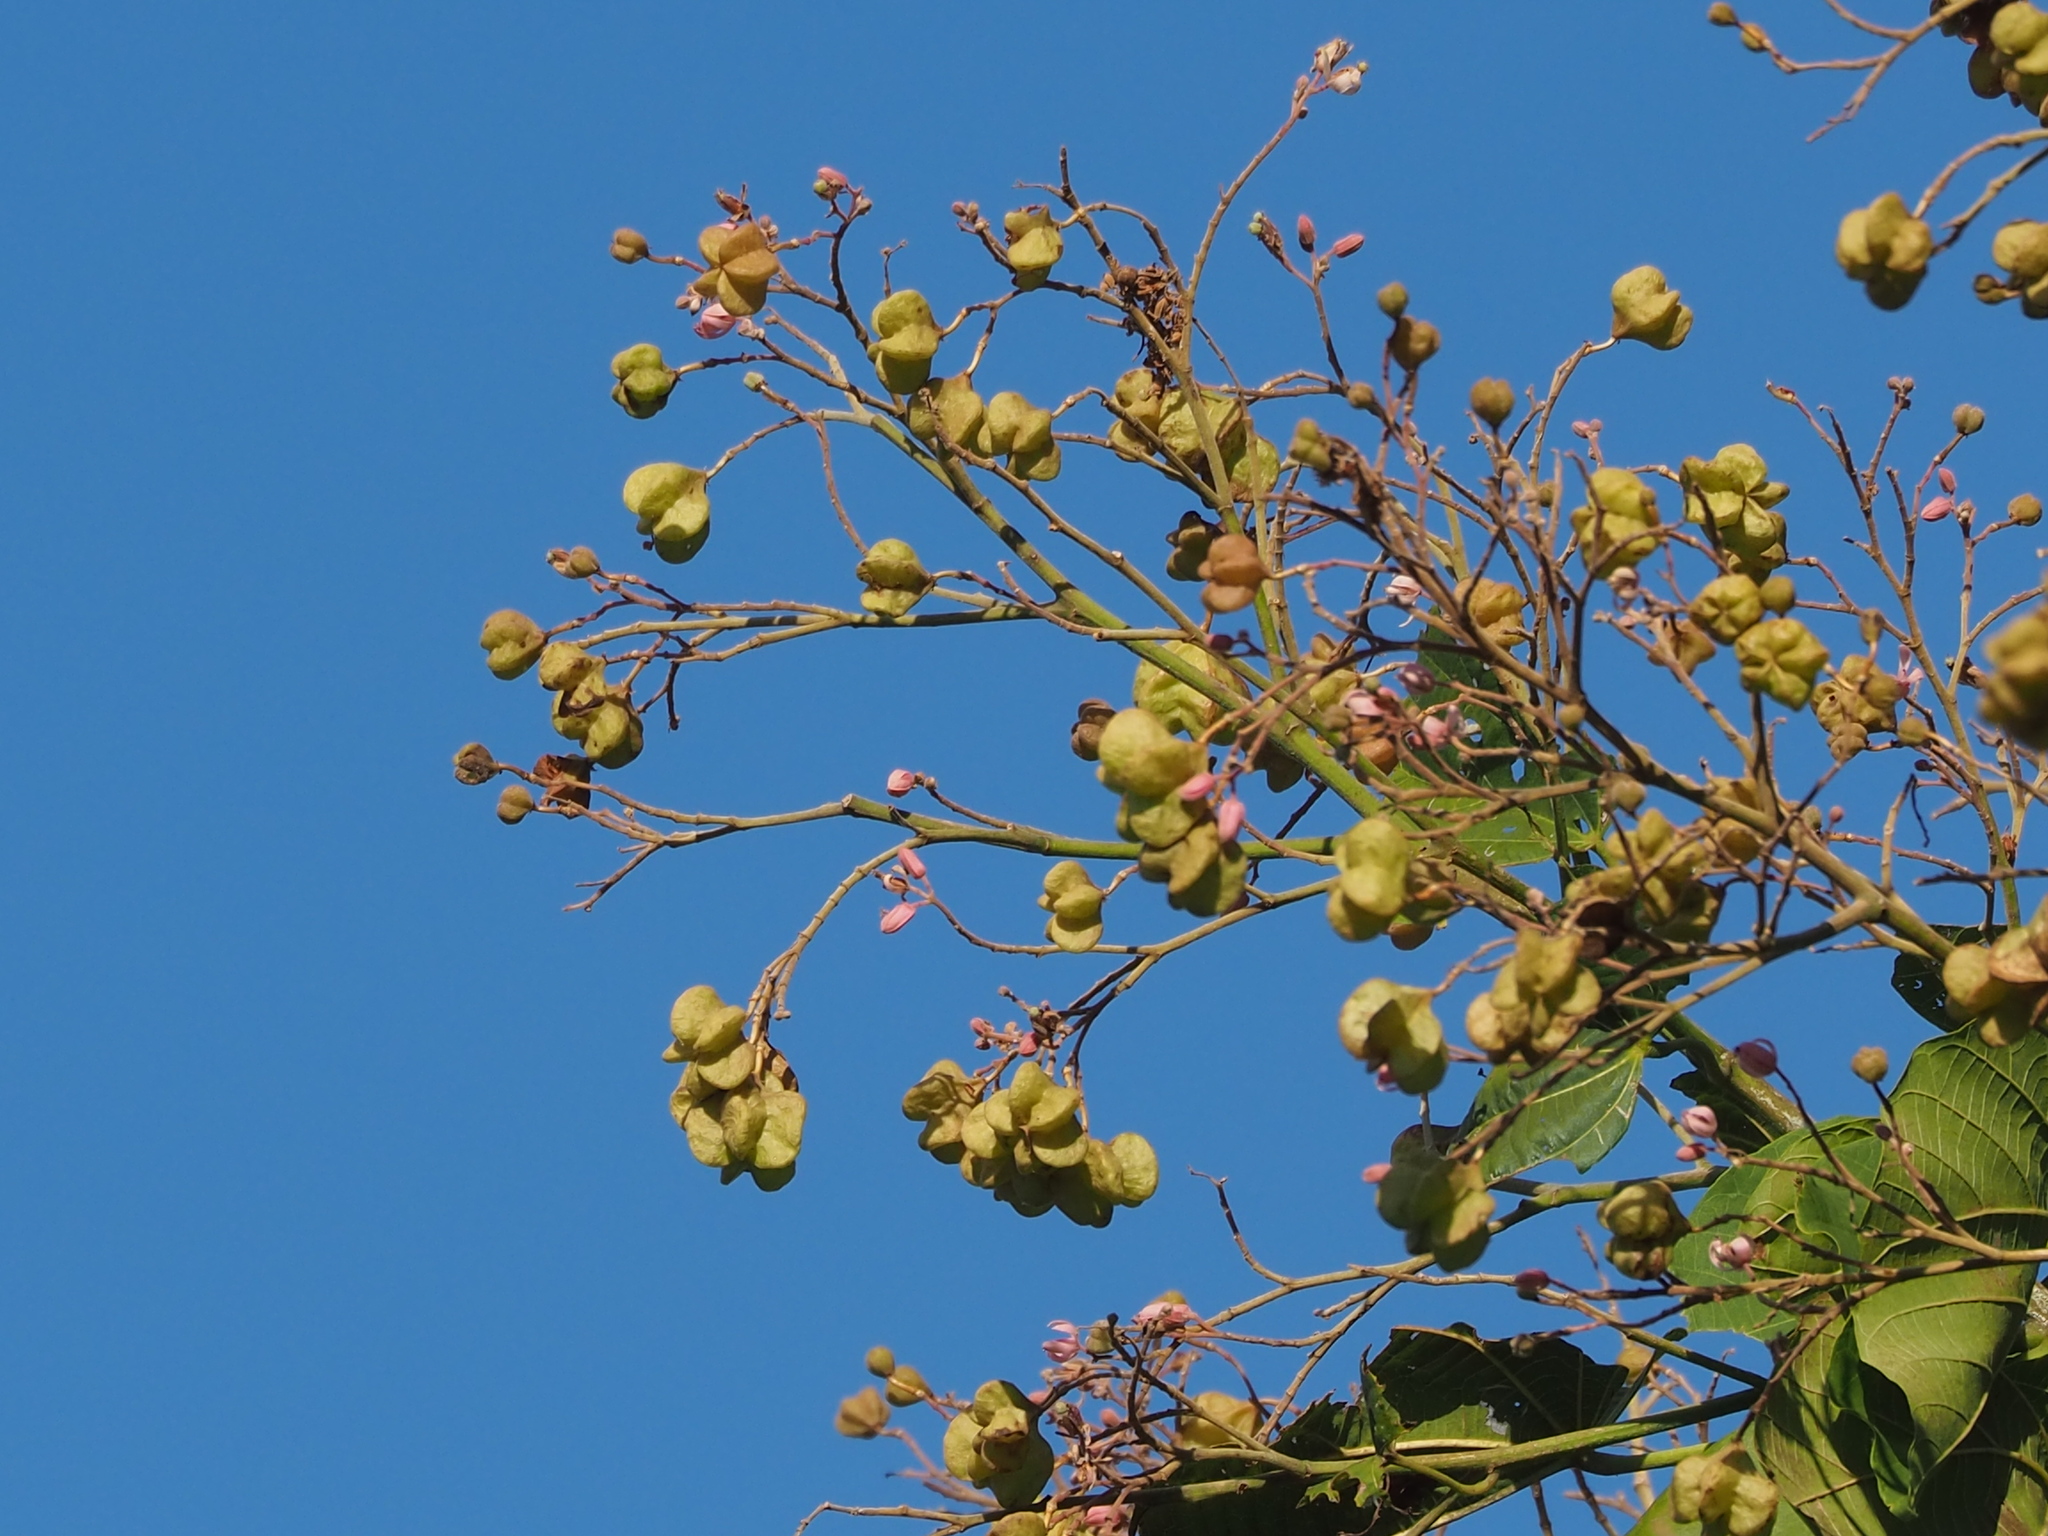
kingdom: Plantae
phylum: Tracheophyta
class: Magnoliopsida
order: Malvales
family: Malvaceae
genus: Kleinhovia
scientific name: Kleinhovia hospita
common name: Guest-tree
